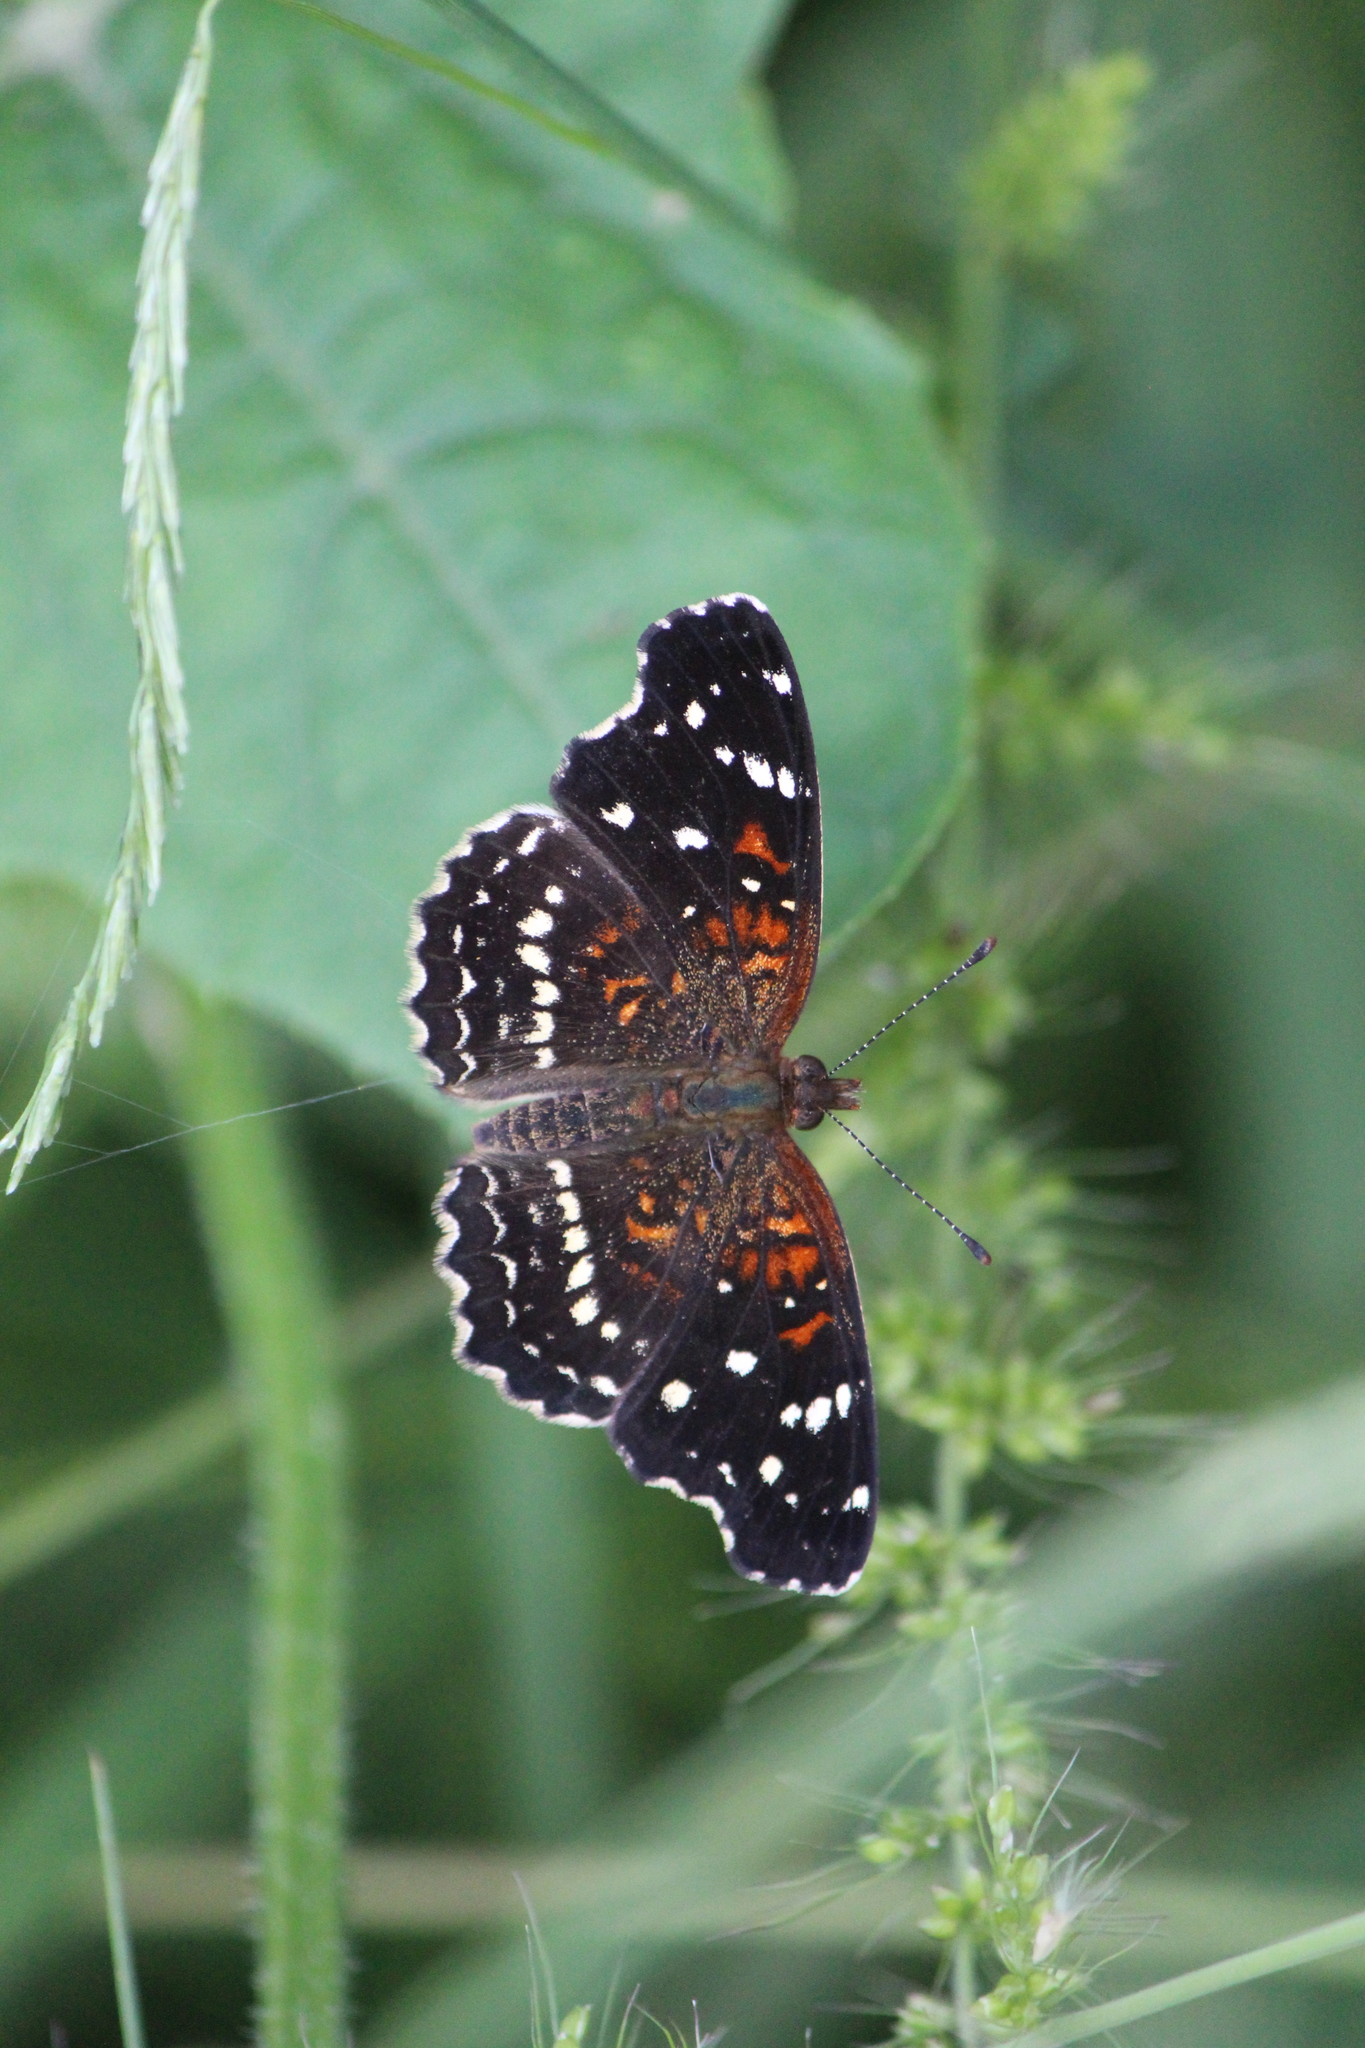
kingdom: Animalia
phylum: Arthropoda
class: Insecta
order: Lepidoptera
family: Nymphalidae
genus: Anthanassa
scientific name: Anthanassa texana
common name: Texan crescent
